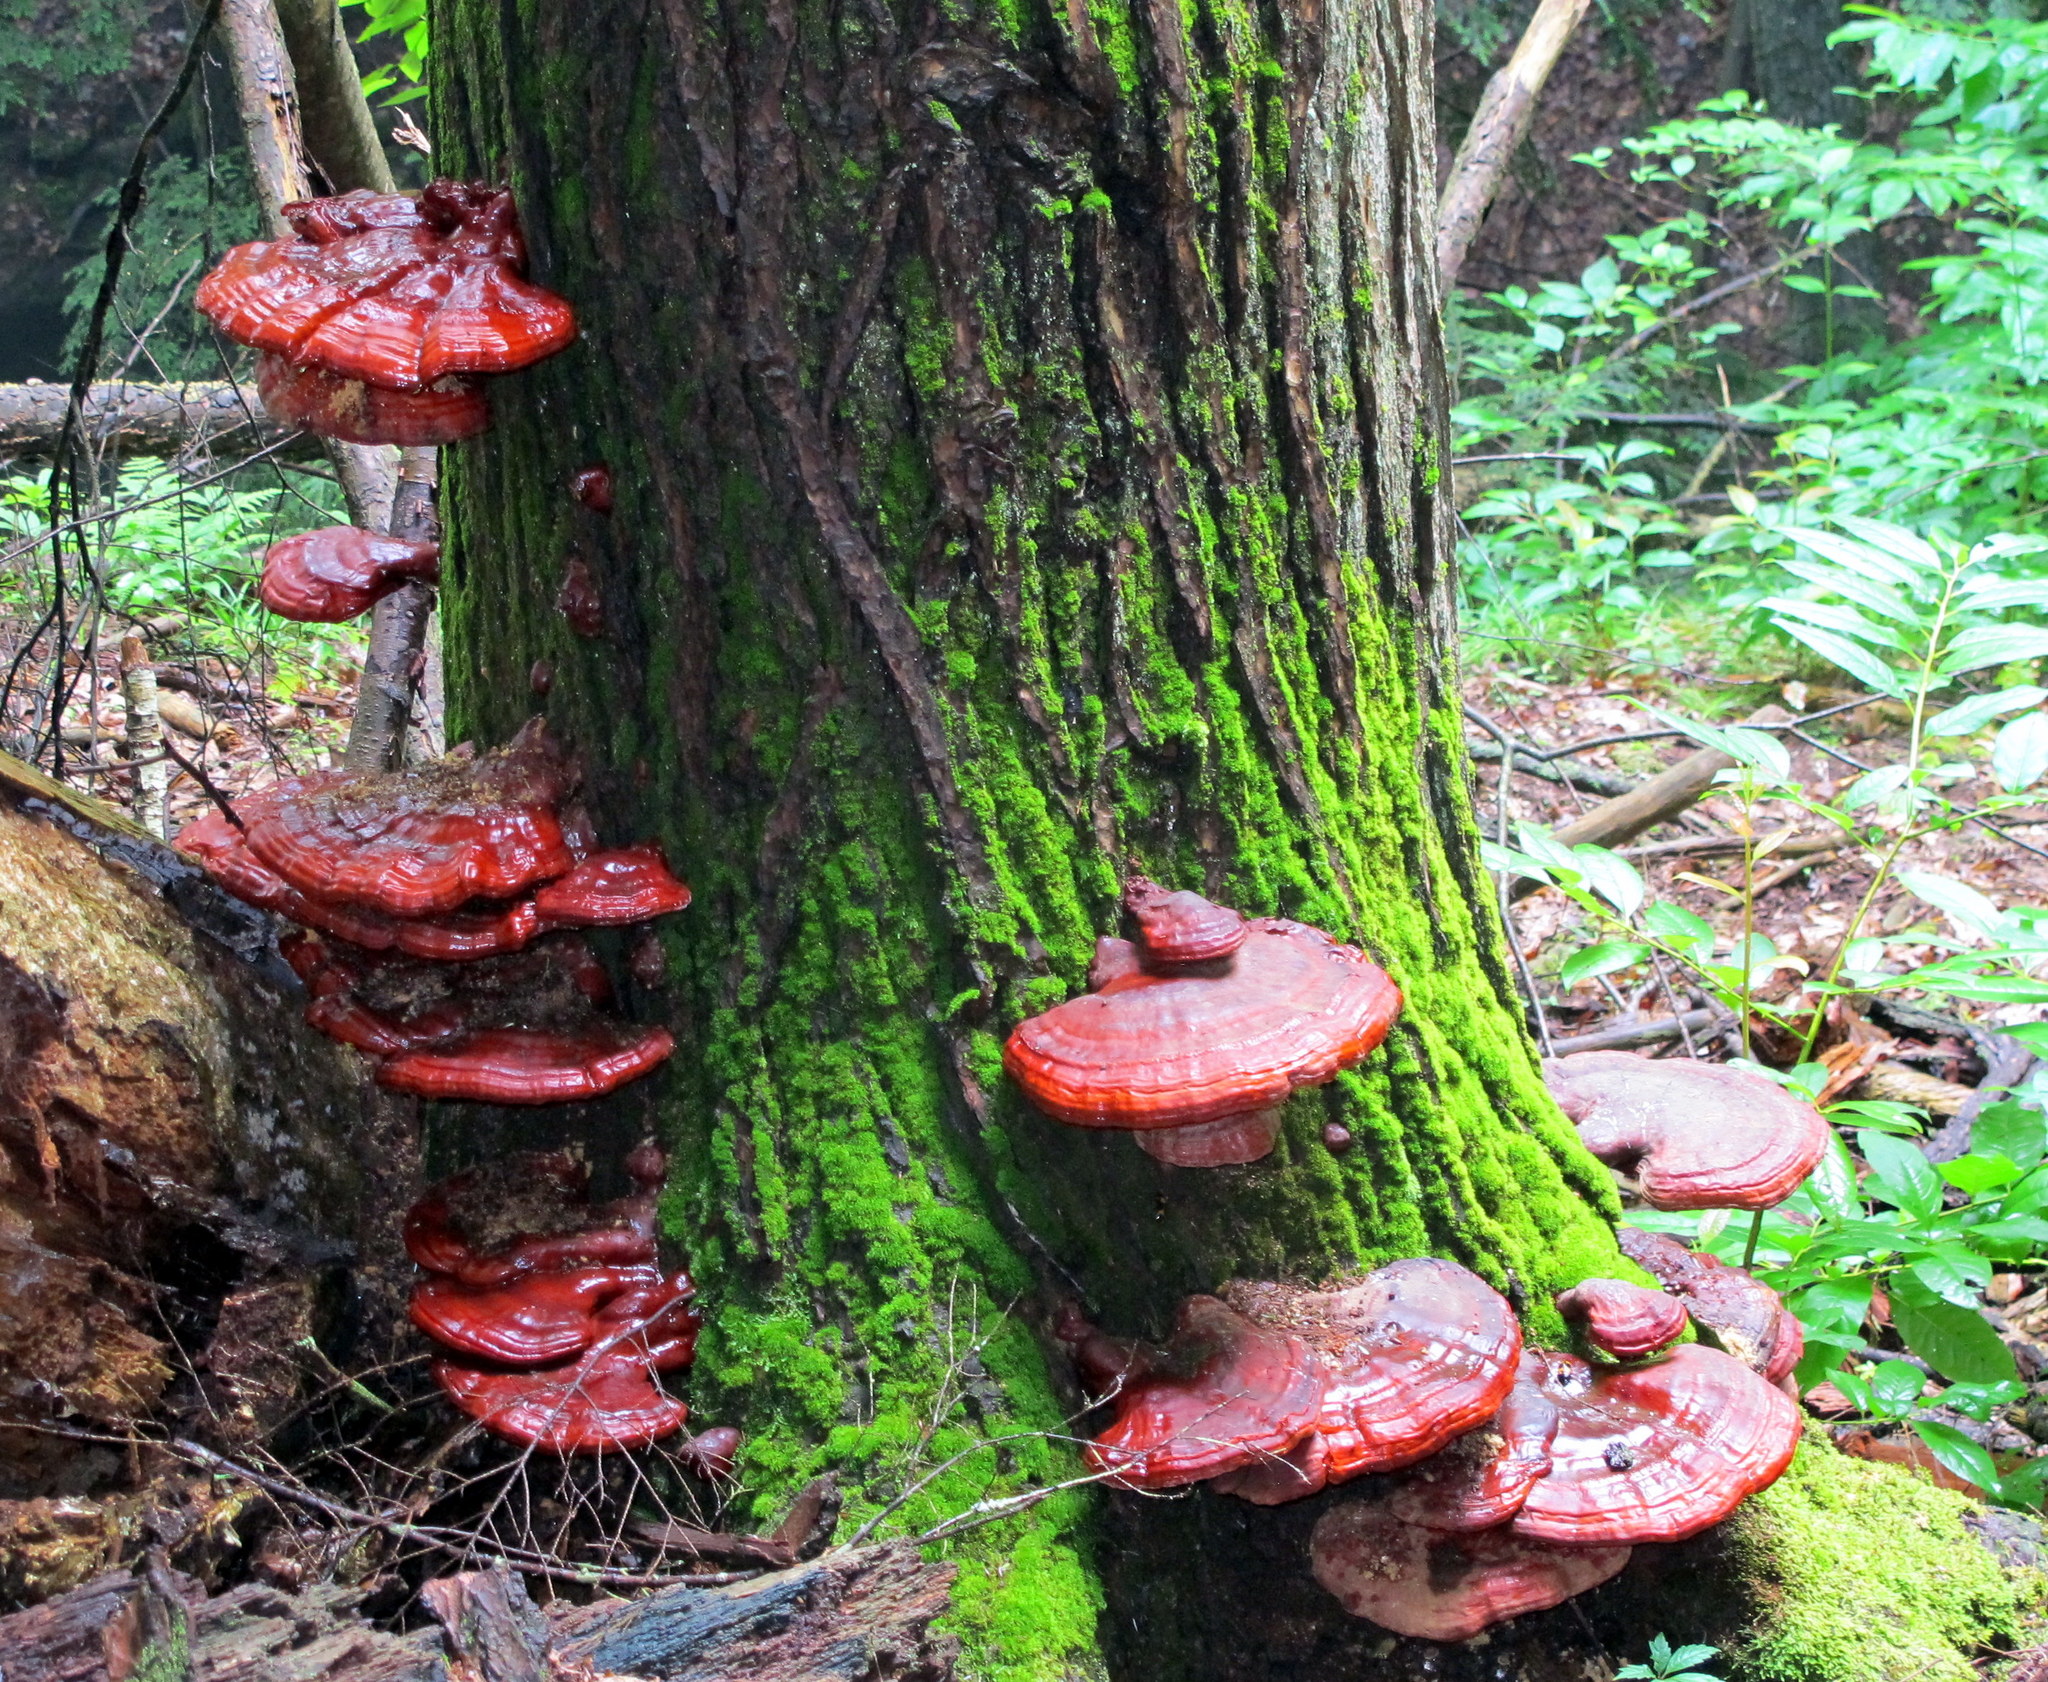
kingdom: Fungi
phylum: Basidiomycota
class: Agaricomycetes
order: Polyporales
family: Polyporaceae
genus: Ganoderma
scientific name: Ganoderma tsugae
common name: Hemlock varnish shelf
